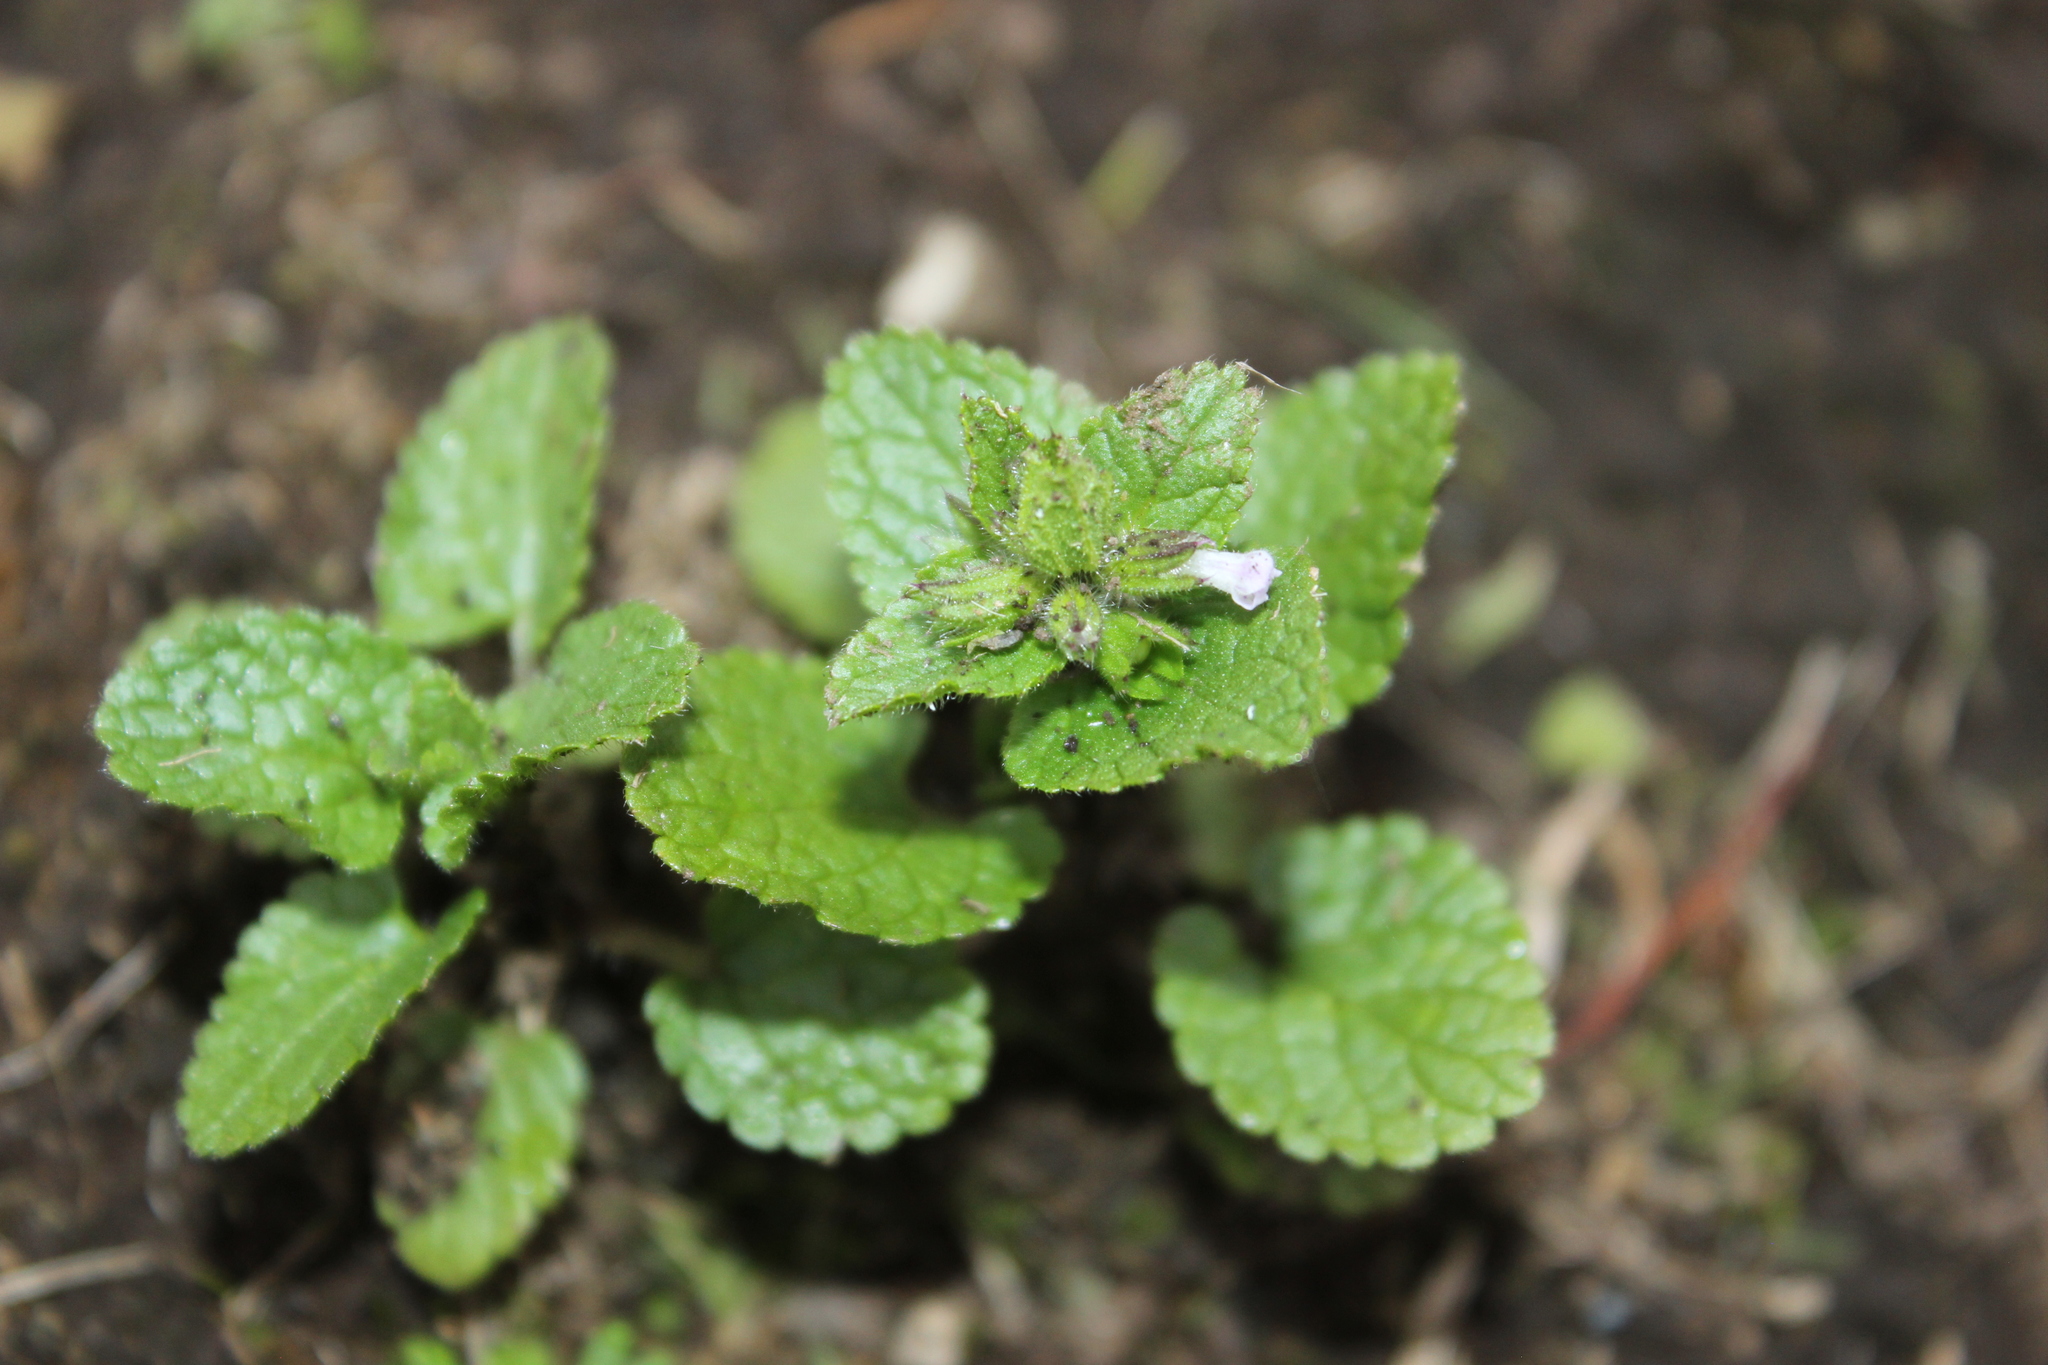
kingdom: Plantae
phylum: Tracheophyta
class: Magnoliopsida
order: Lamiales
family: Lamiaceae
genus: Stachys
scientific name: Stachys arvensis
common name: Field woundwort
